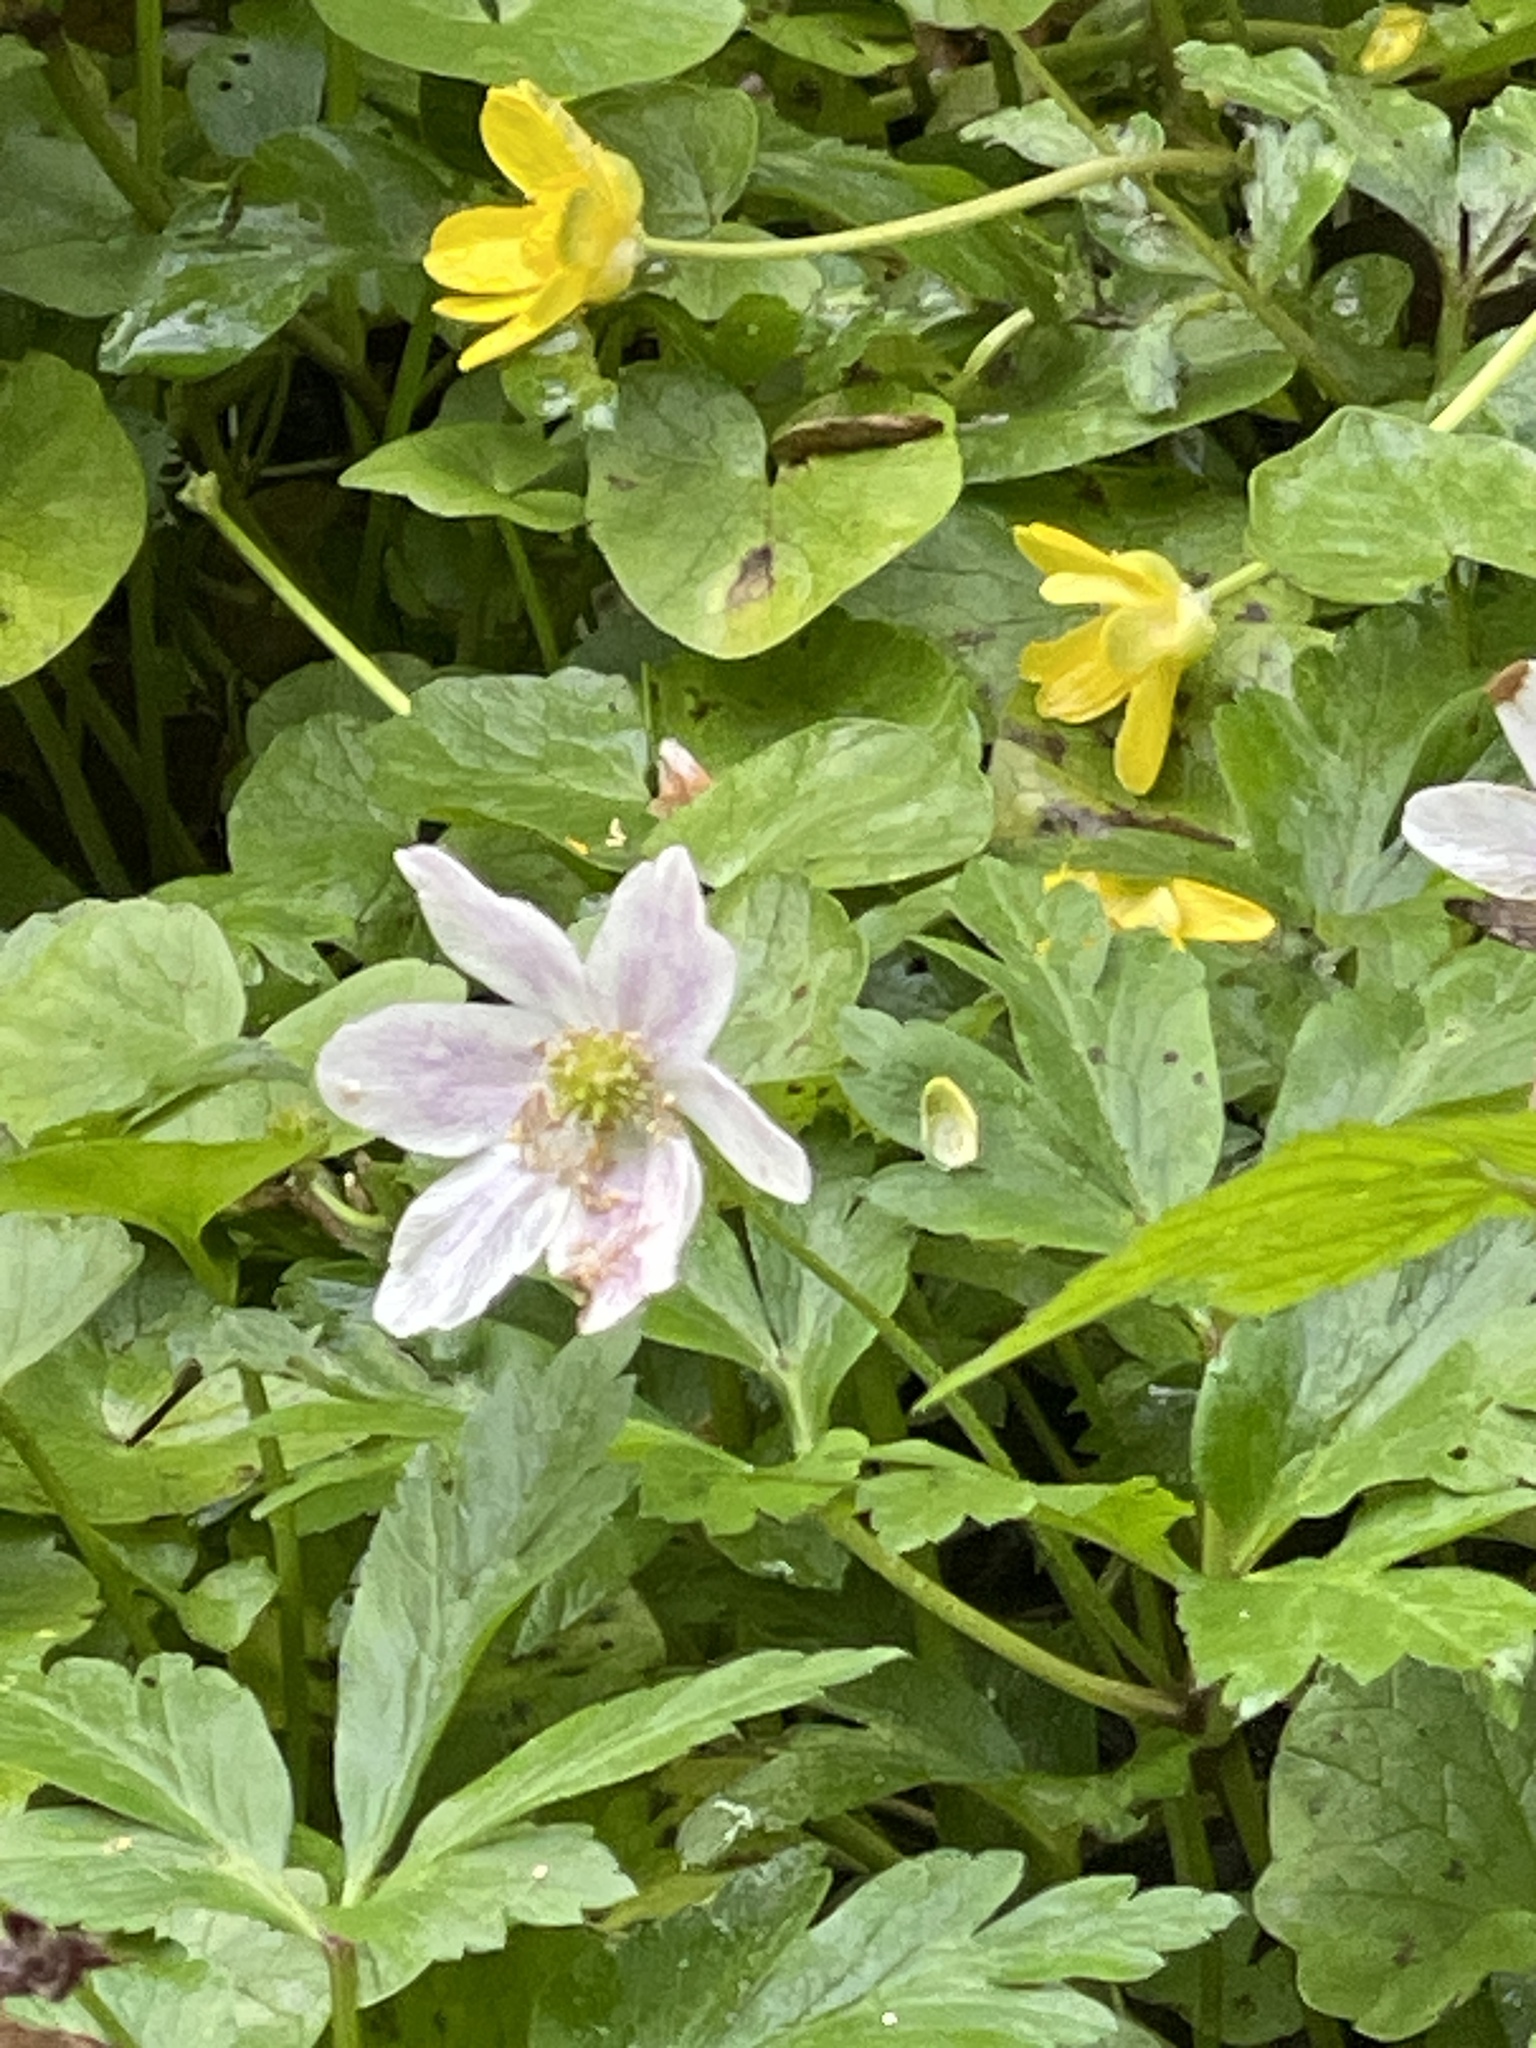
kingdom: Plantae
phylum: Tracheophyta
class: Magnoliopsida
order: Ranunculales
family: Ranunculaceae
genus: Anemone
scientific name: Anemone nemorosa
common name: Wood anemone
